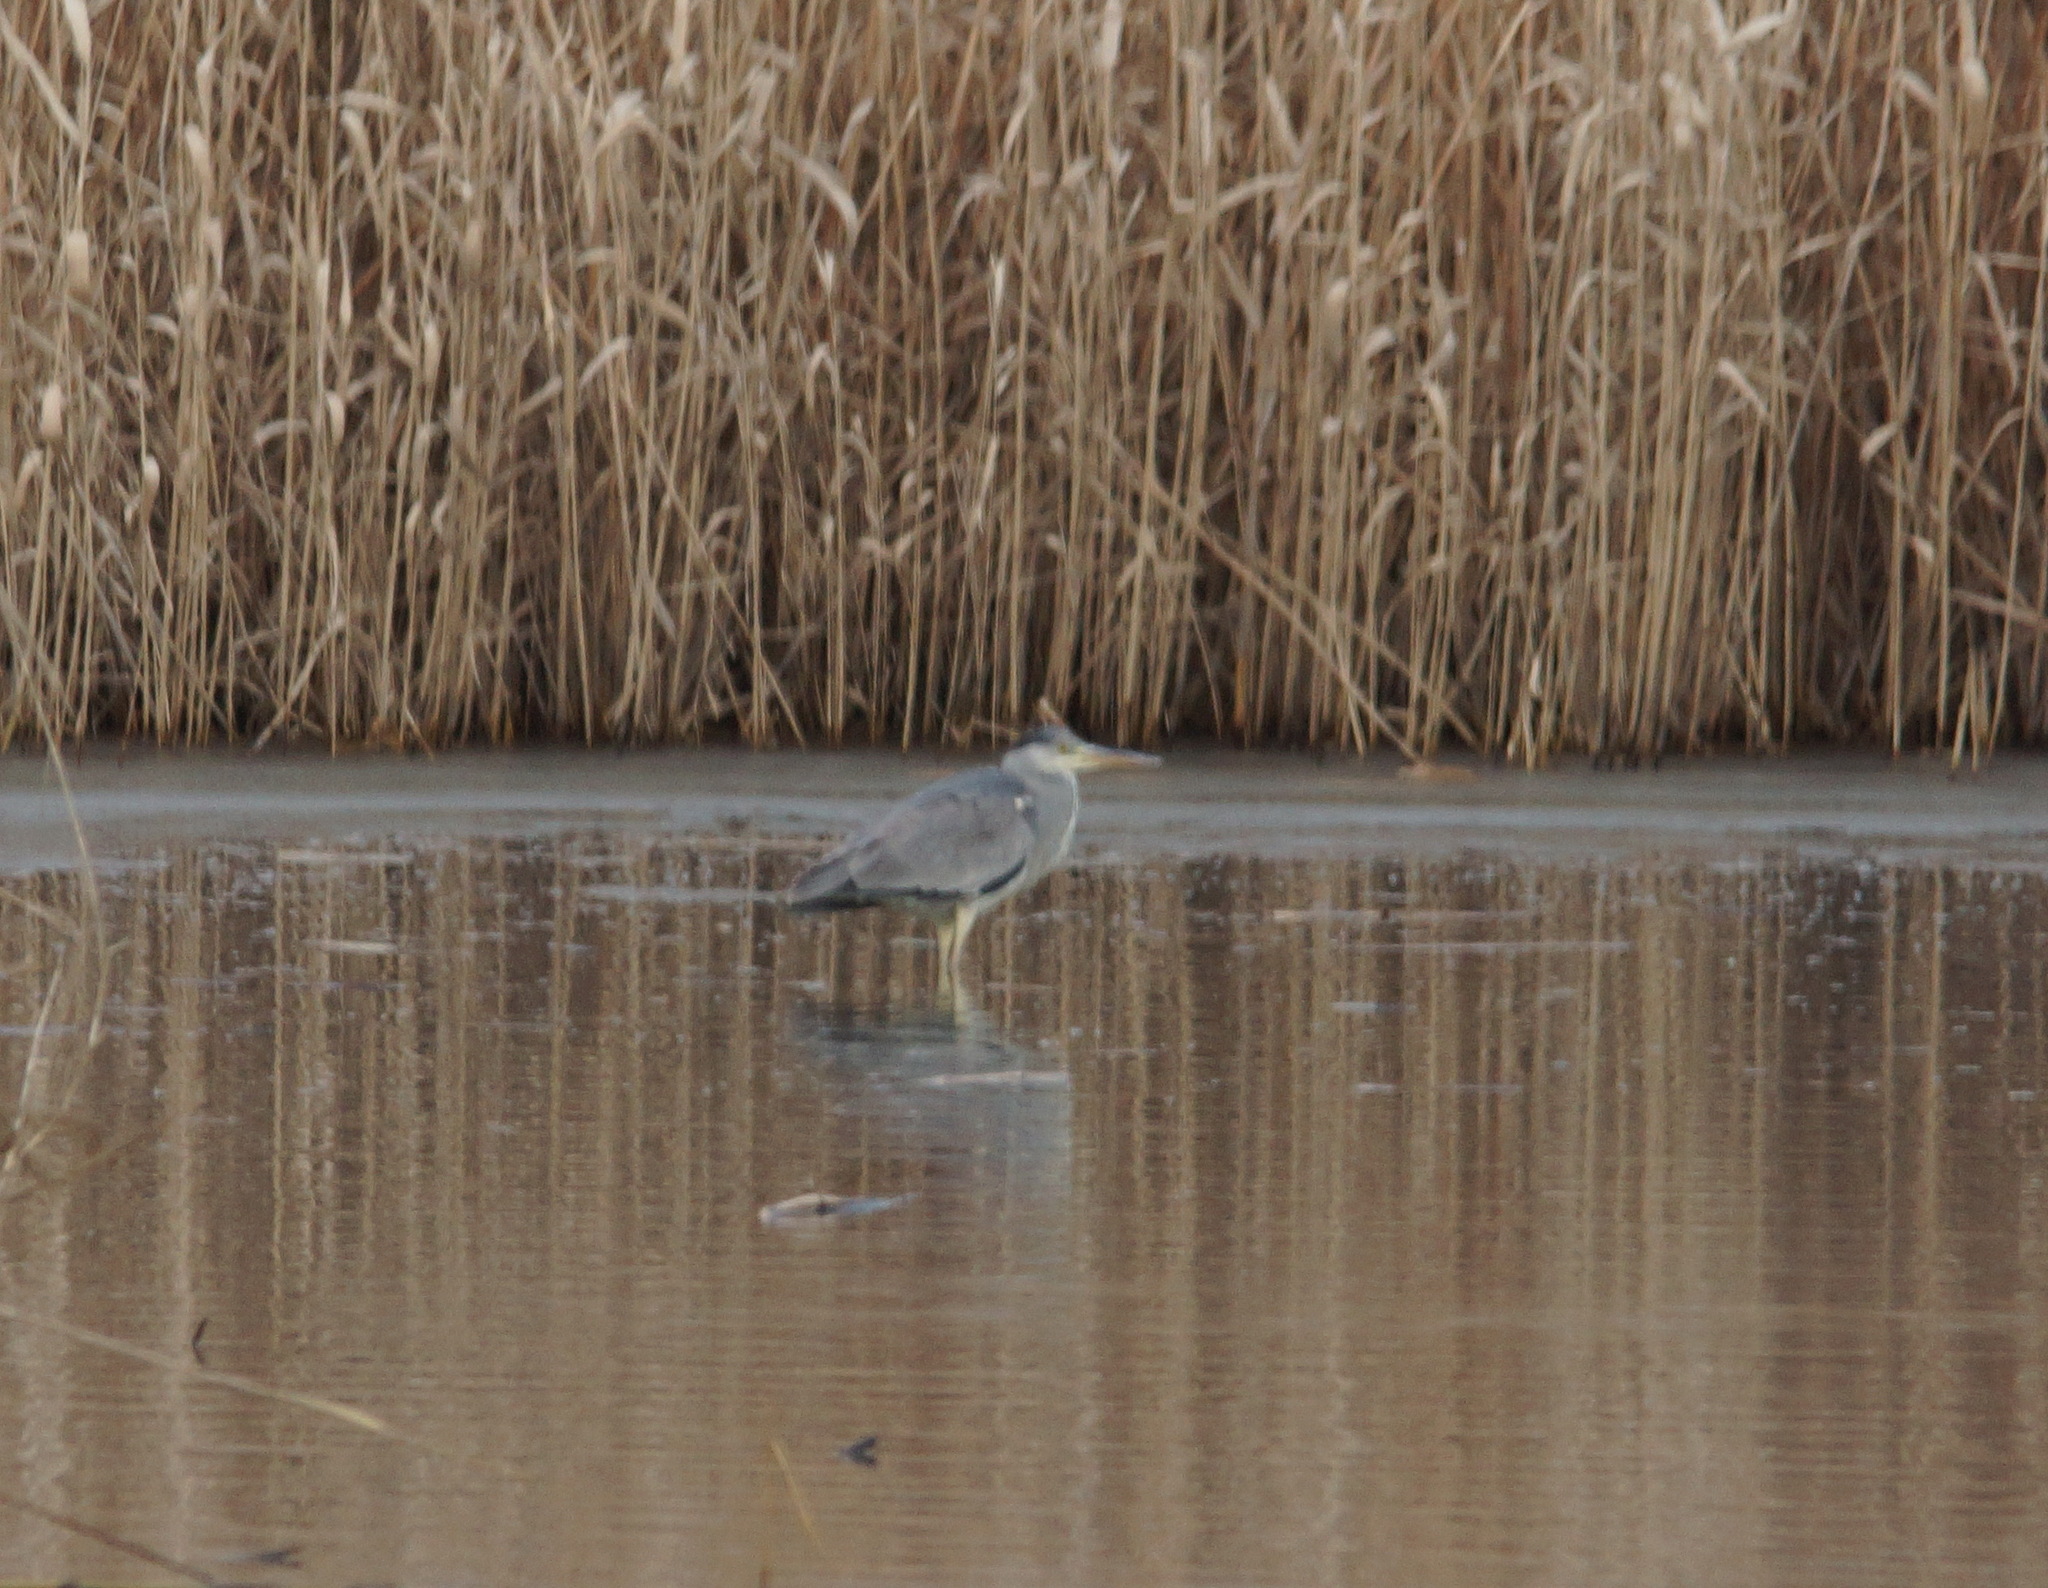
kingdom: Animalia
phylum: Chordata
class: Aves
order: Pelecaniformes
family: Ardeidae
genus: Ardea
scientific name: Ardea cinerea
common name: Grey heron
